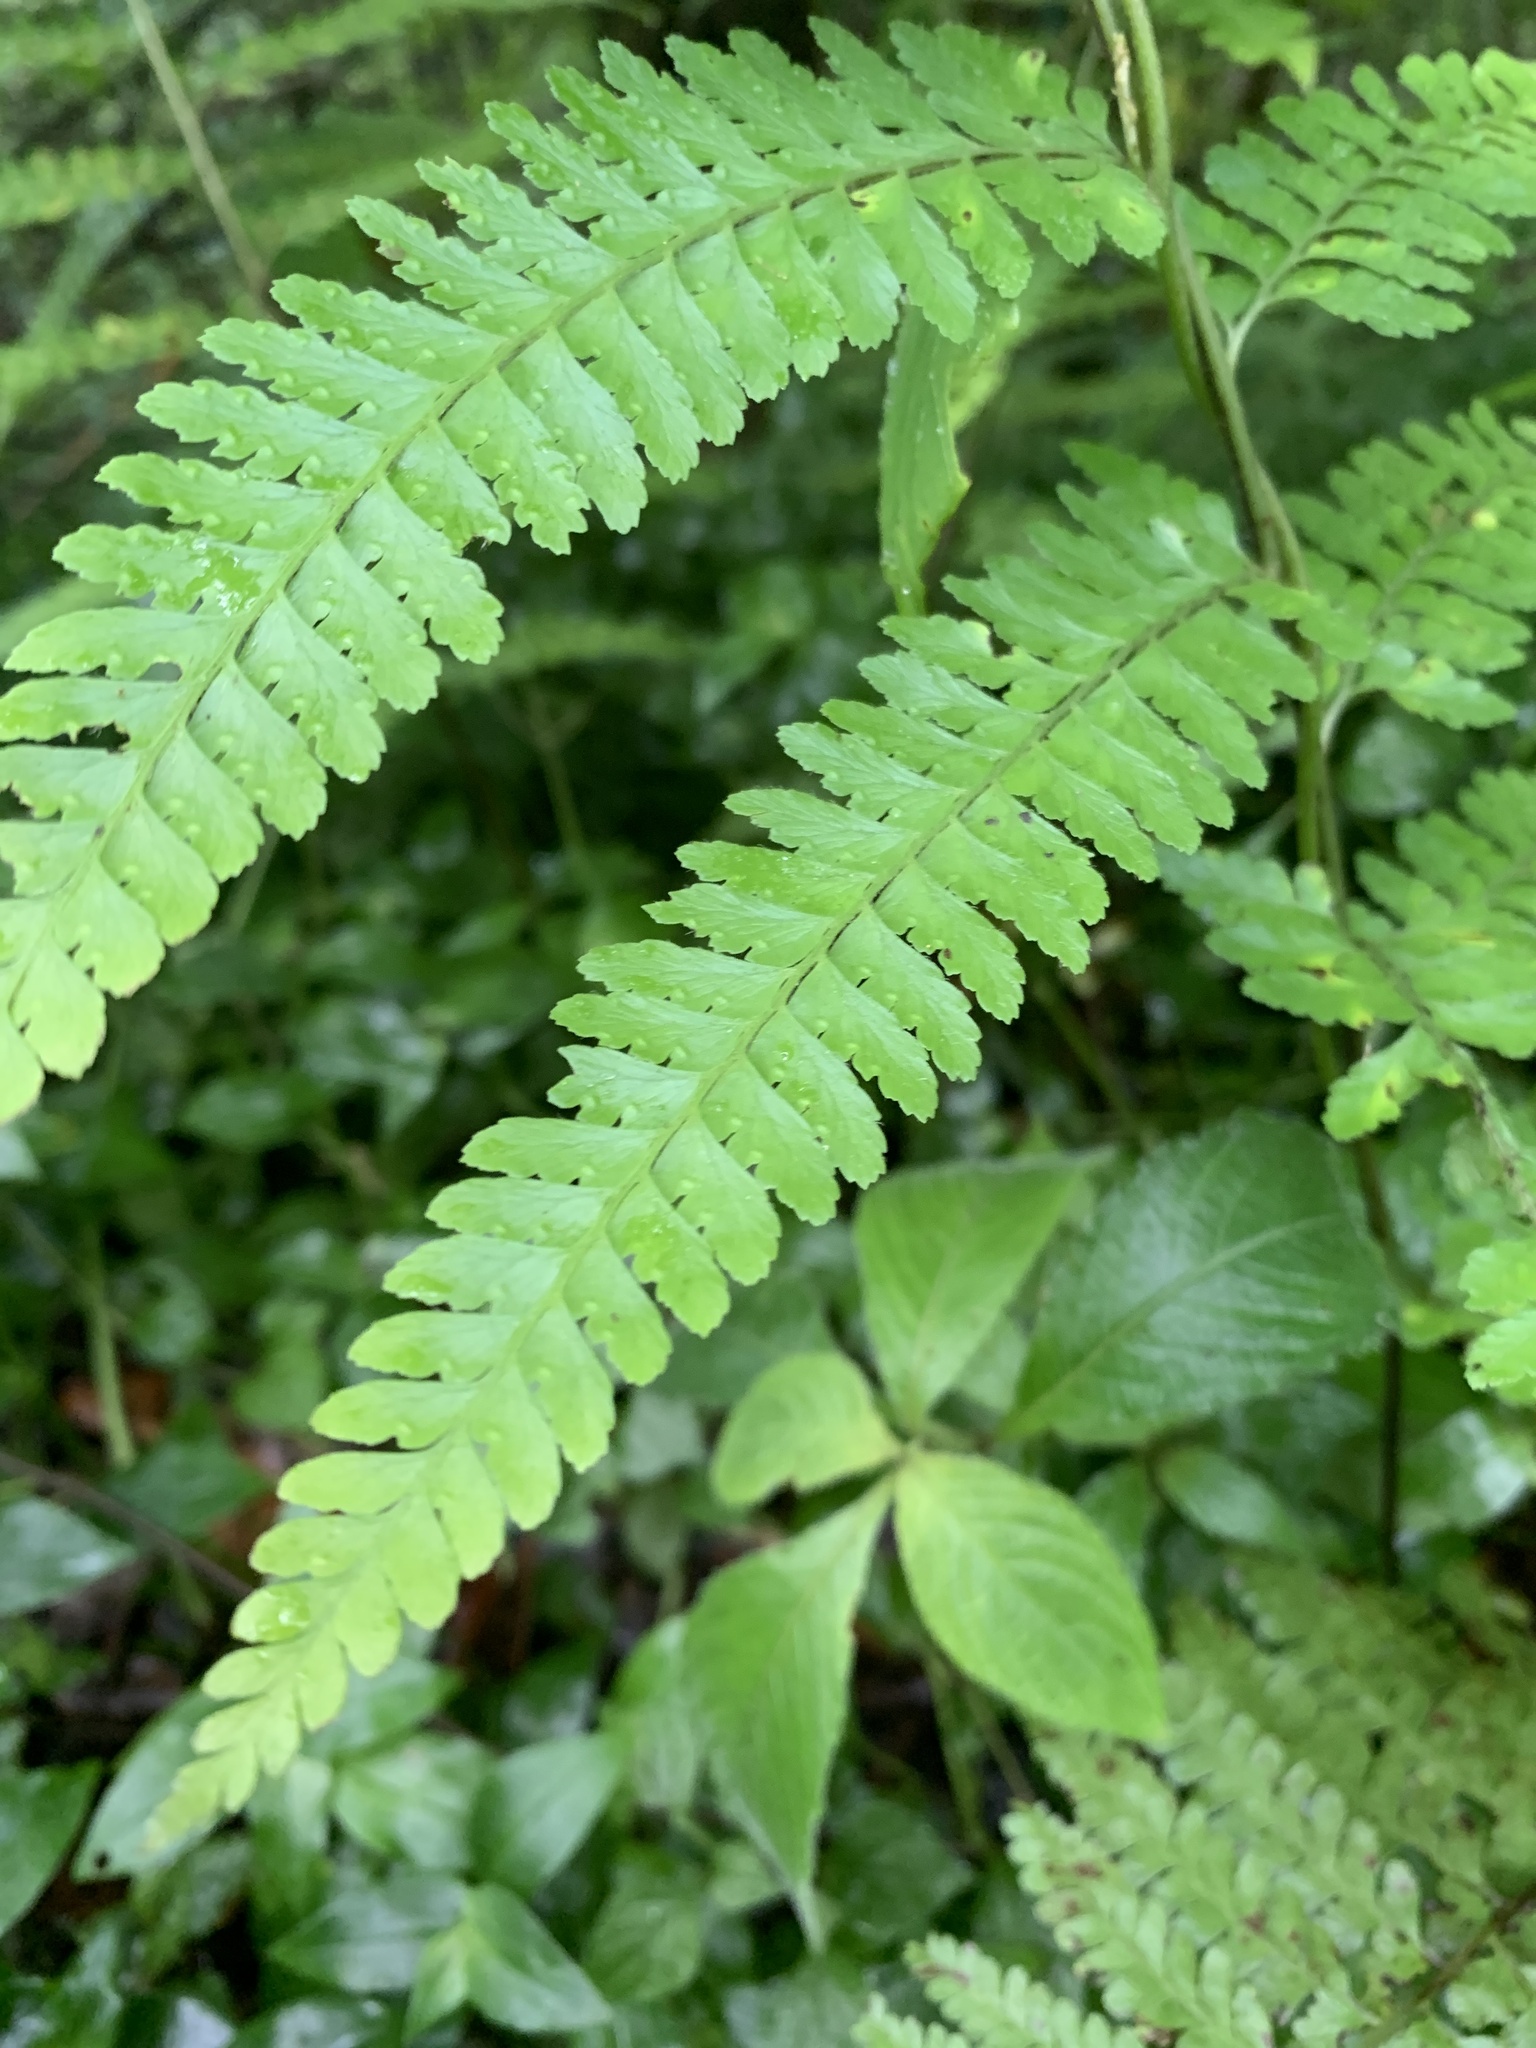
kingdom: Plantae
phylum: Tracheophyta
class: Polypodiopsida
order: Polypodiales
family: Dennstaedtiaceae
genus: Microlepia
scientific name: Microlepia strigosa
